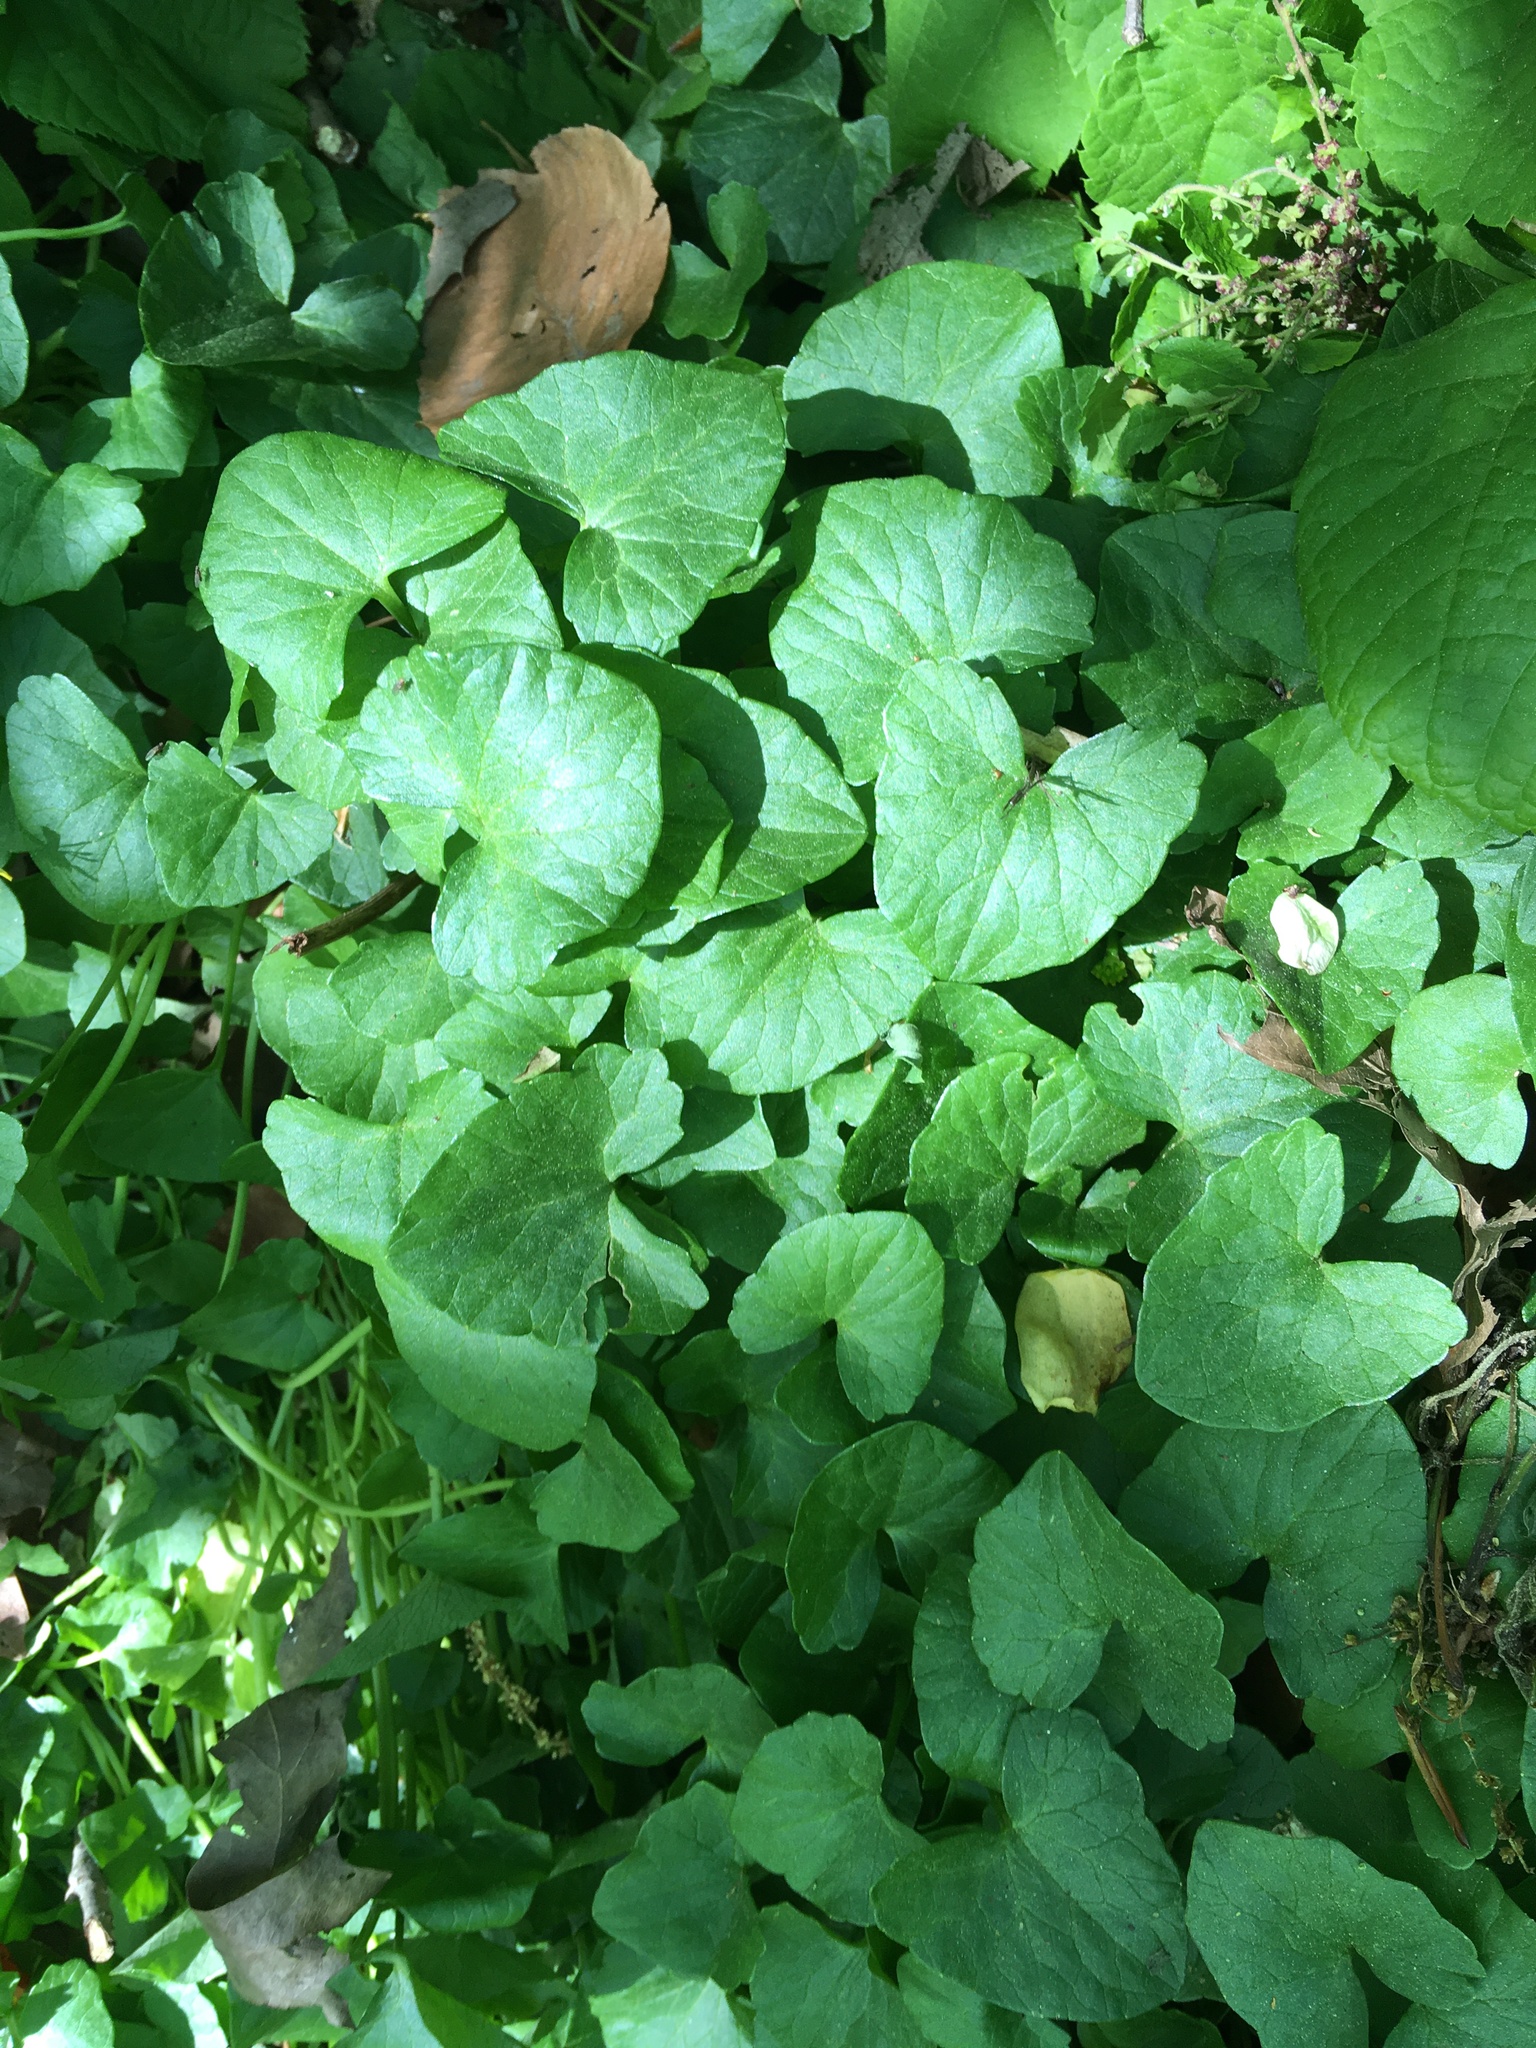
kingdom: Plantae
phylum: Tracheophyta
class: Magnoliopsida
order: Ranunculales
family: Ranunculaceae
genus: Ficaria
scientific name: Ficaria verna
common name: Lesser celandine
